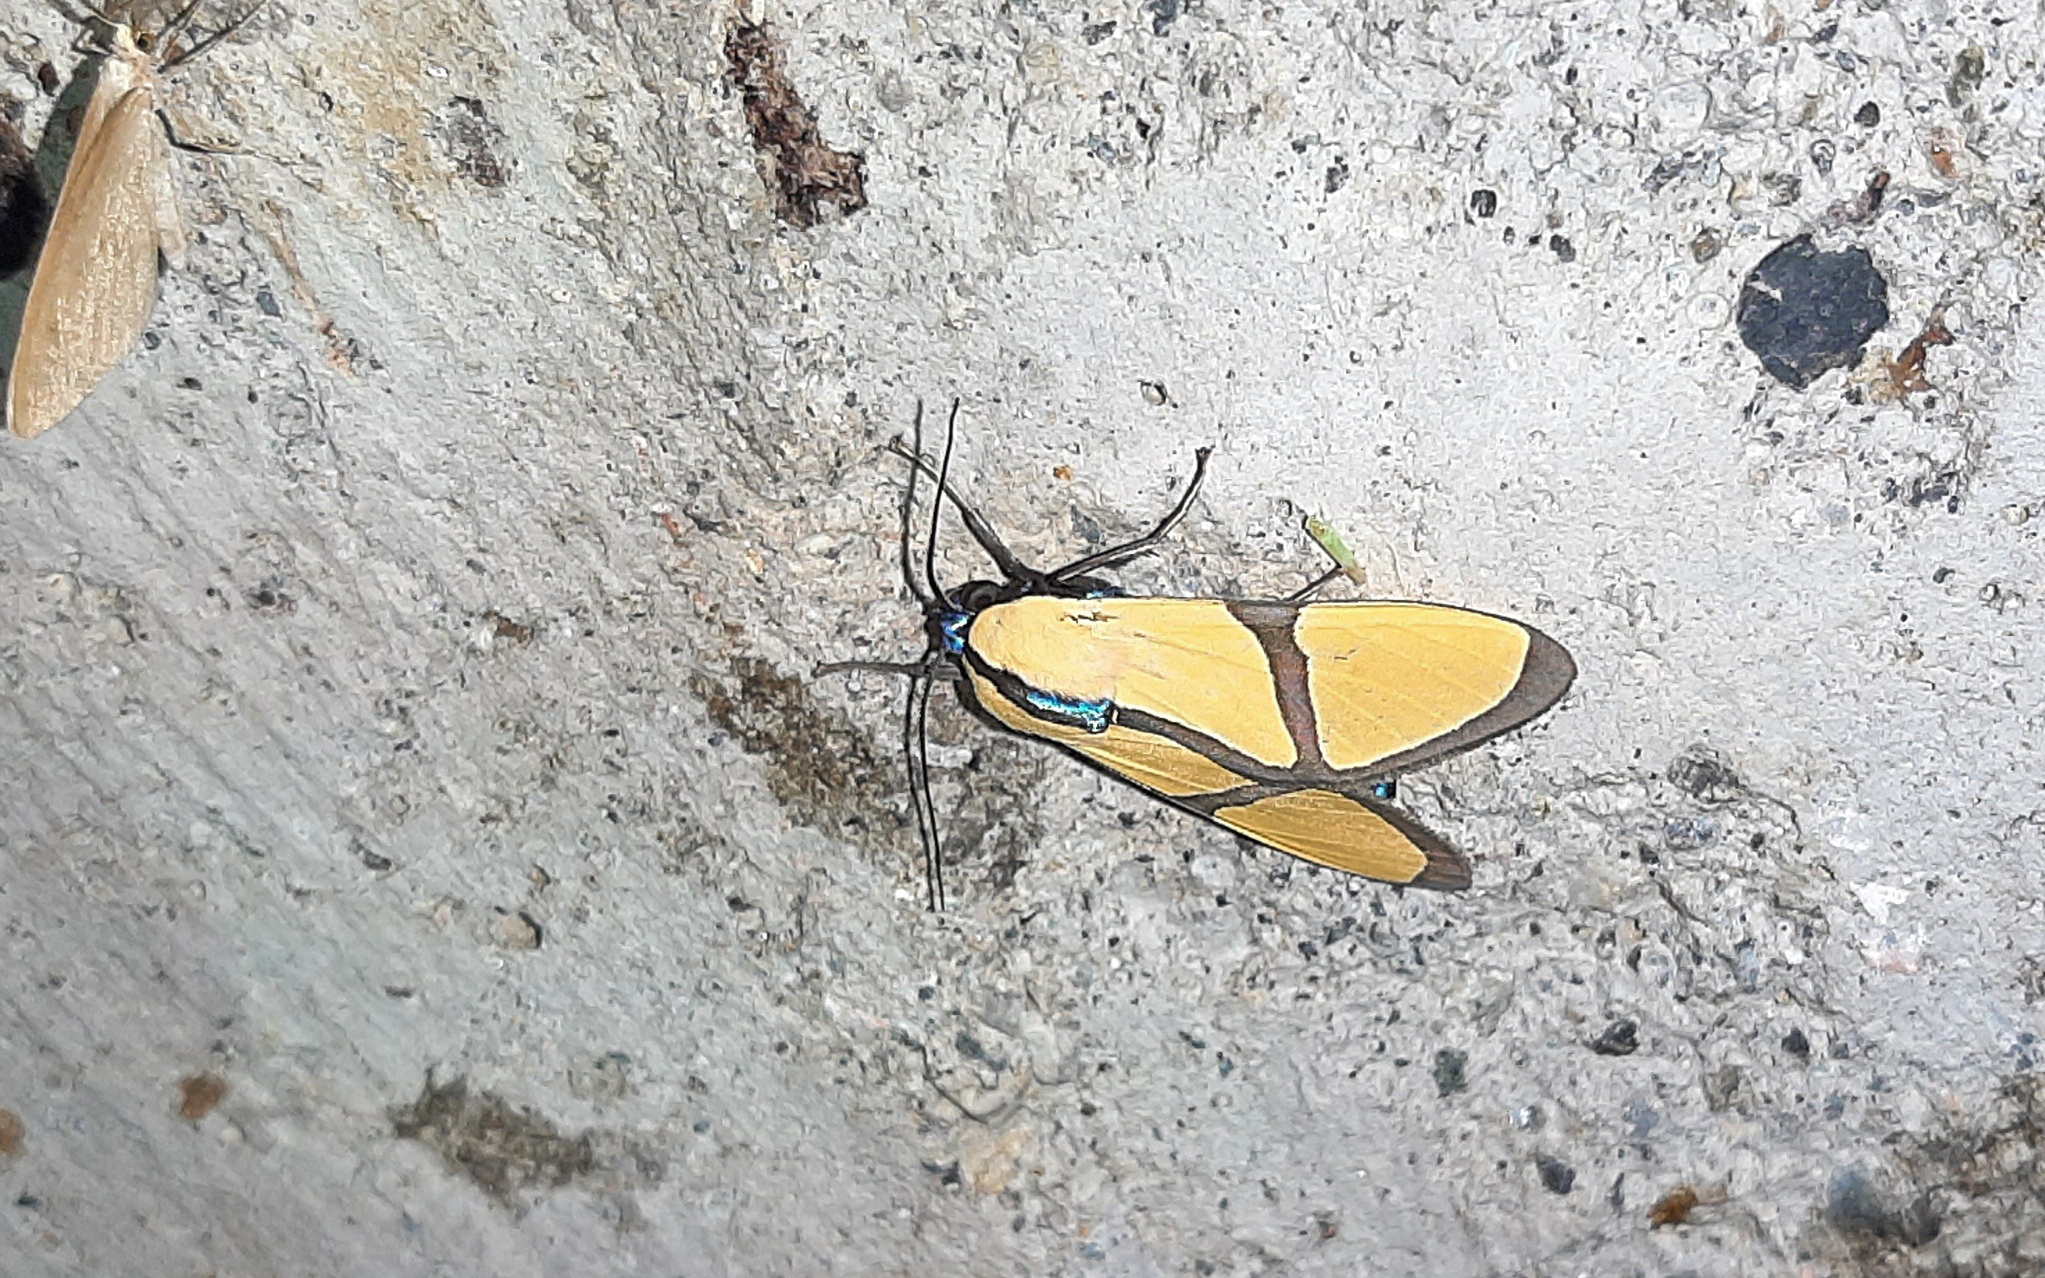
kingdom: Animalia
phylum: Arthropoda
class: Insecta
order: Lepidoptera
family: Erebidae
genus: Ormetica
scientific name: Ormetica ameoides
